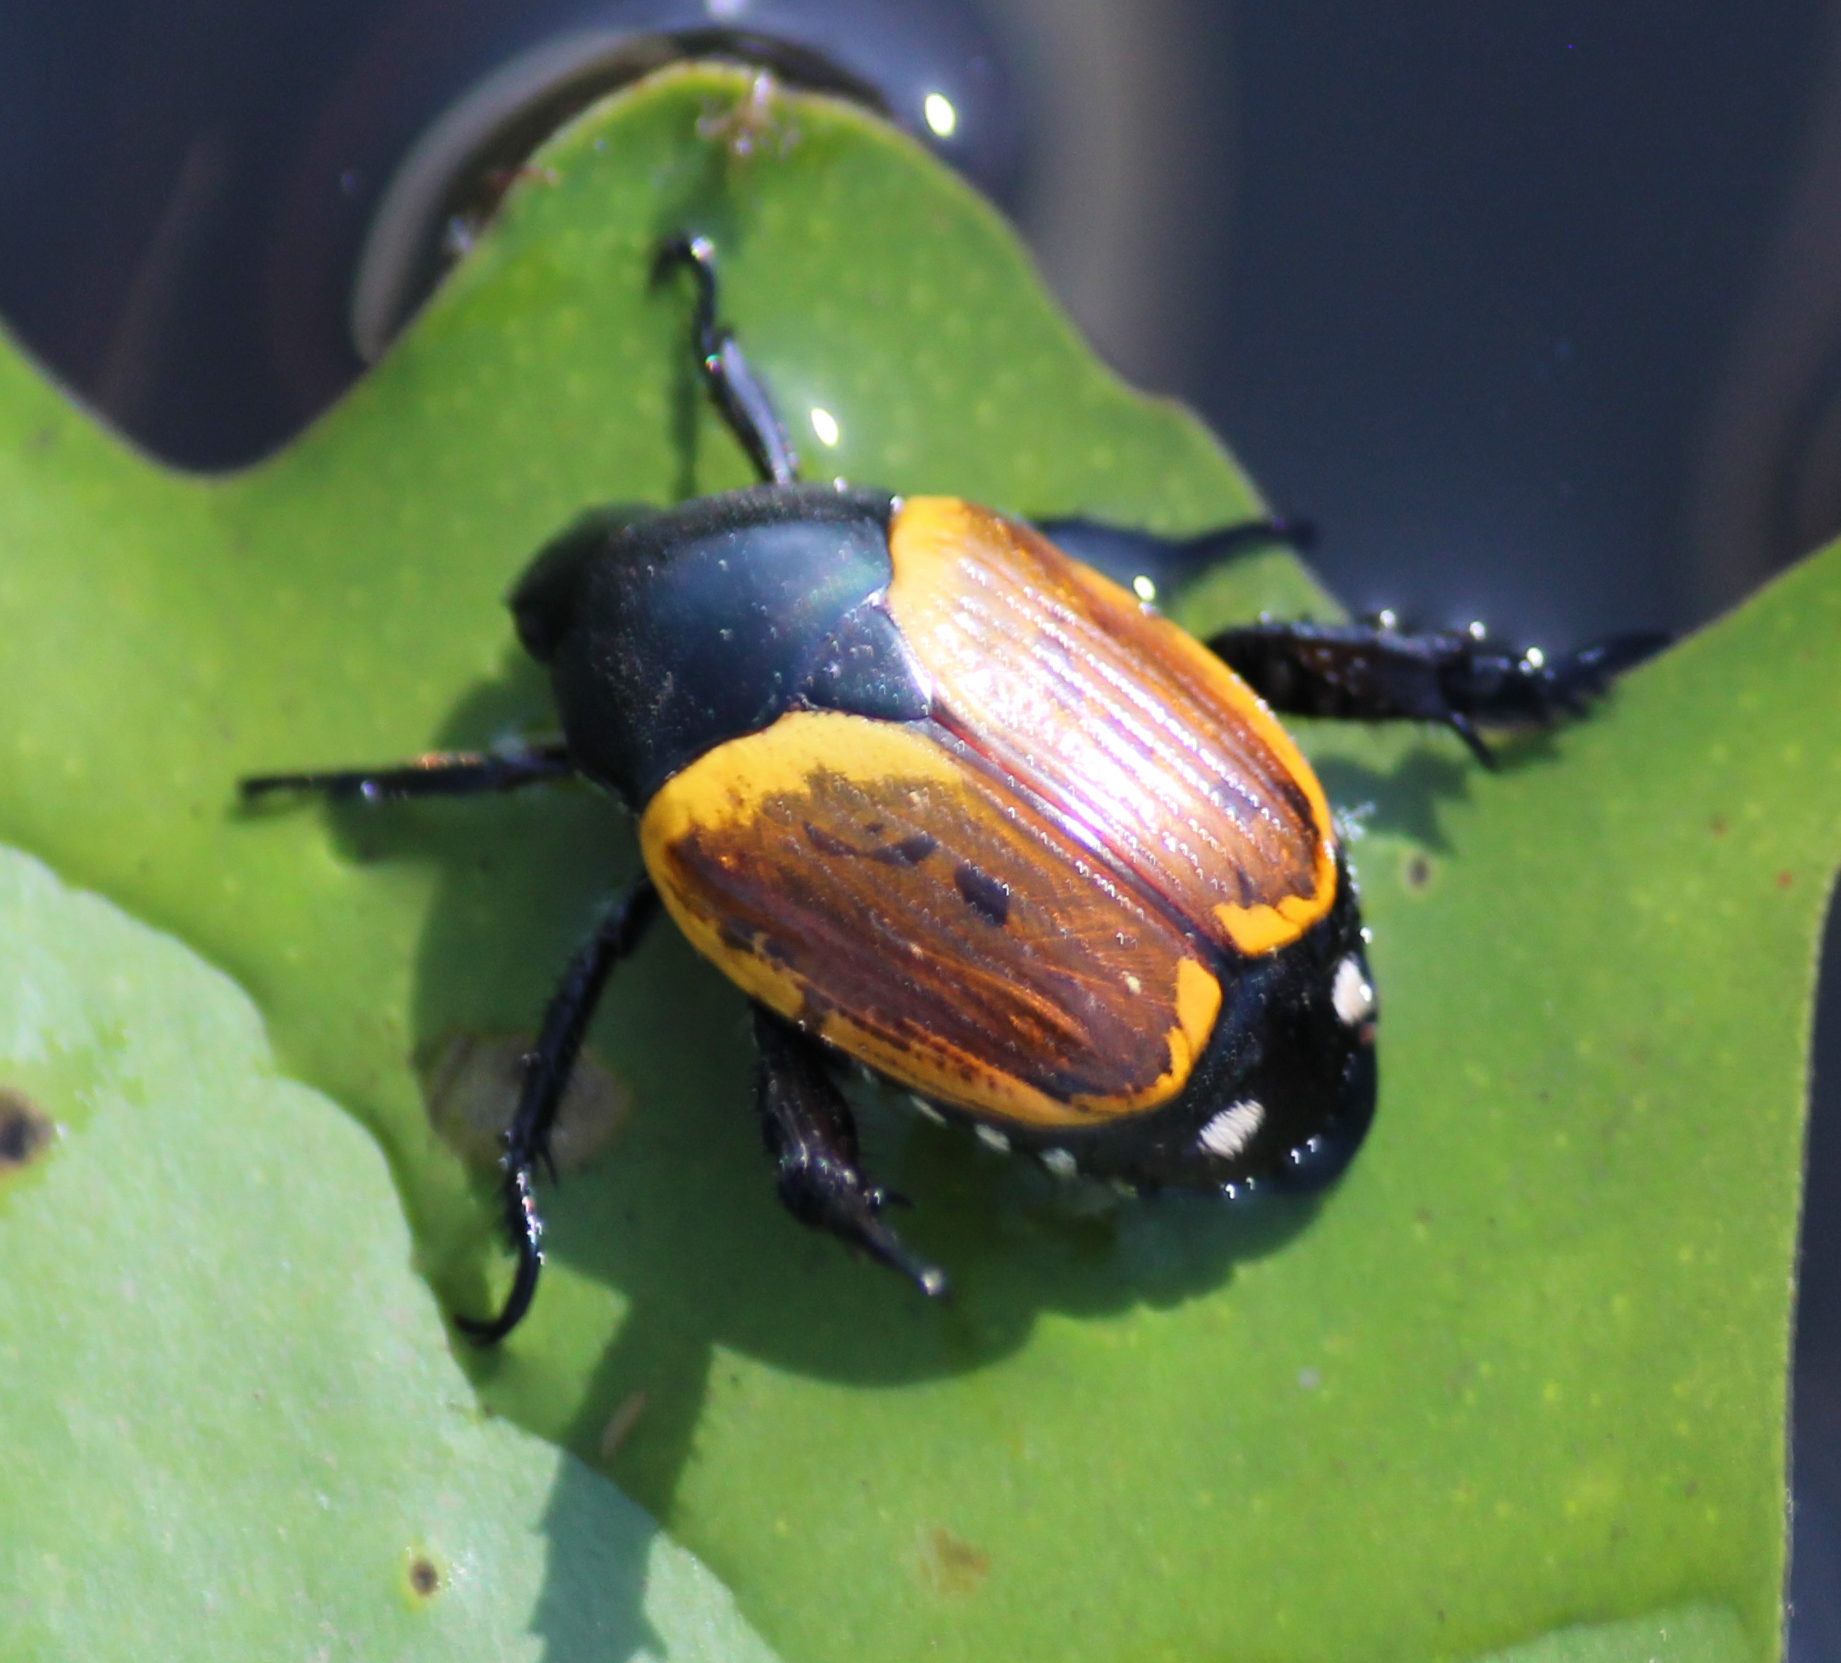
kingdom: Animalia
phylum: Arthropoda
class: Insecta
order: Coleoptera
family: Scarabaeidae
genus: Popillia
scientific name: Popillia bipunctata
